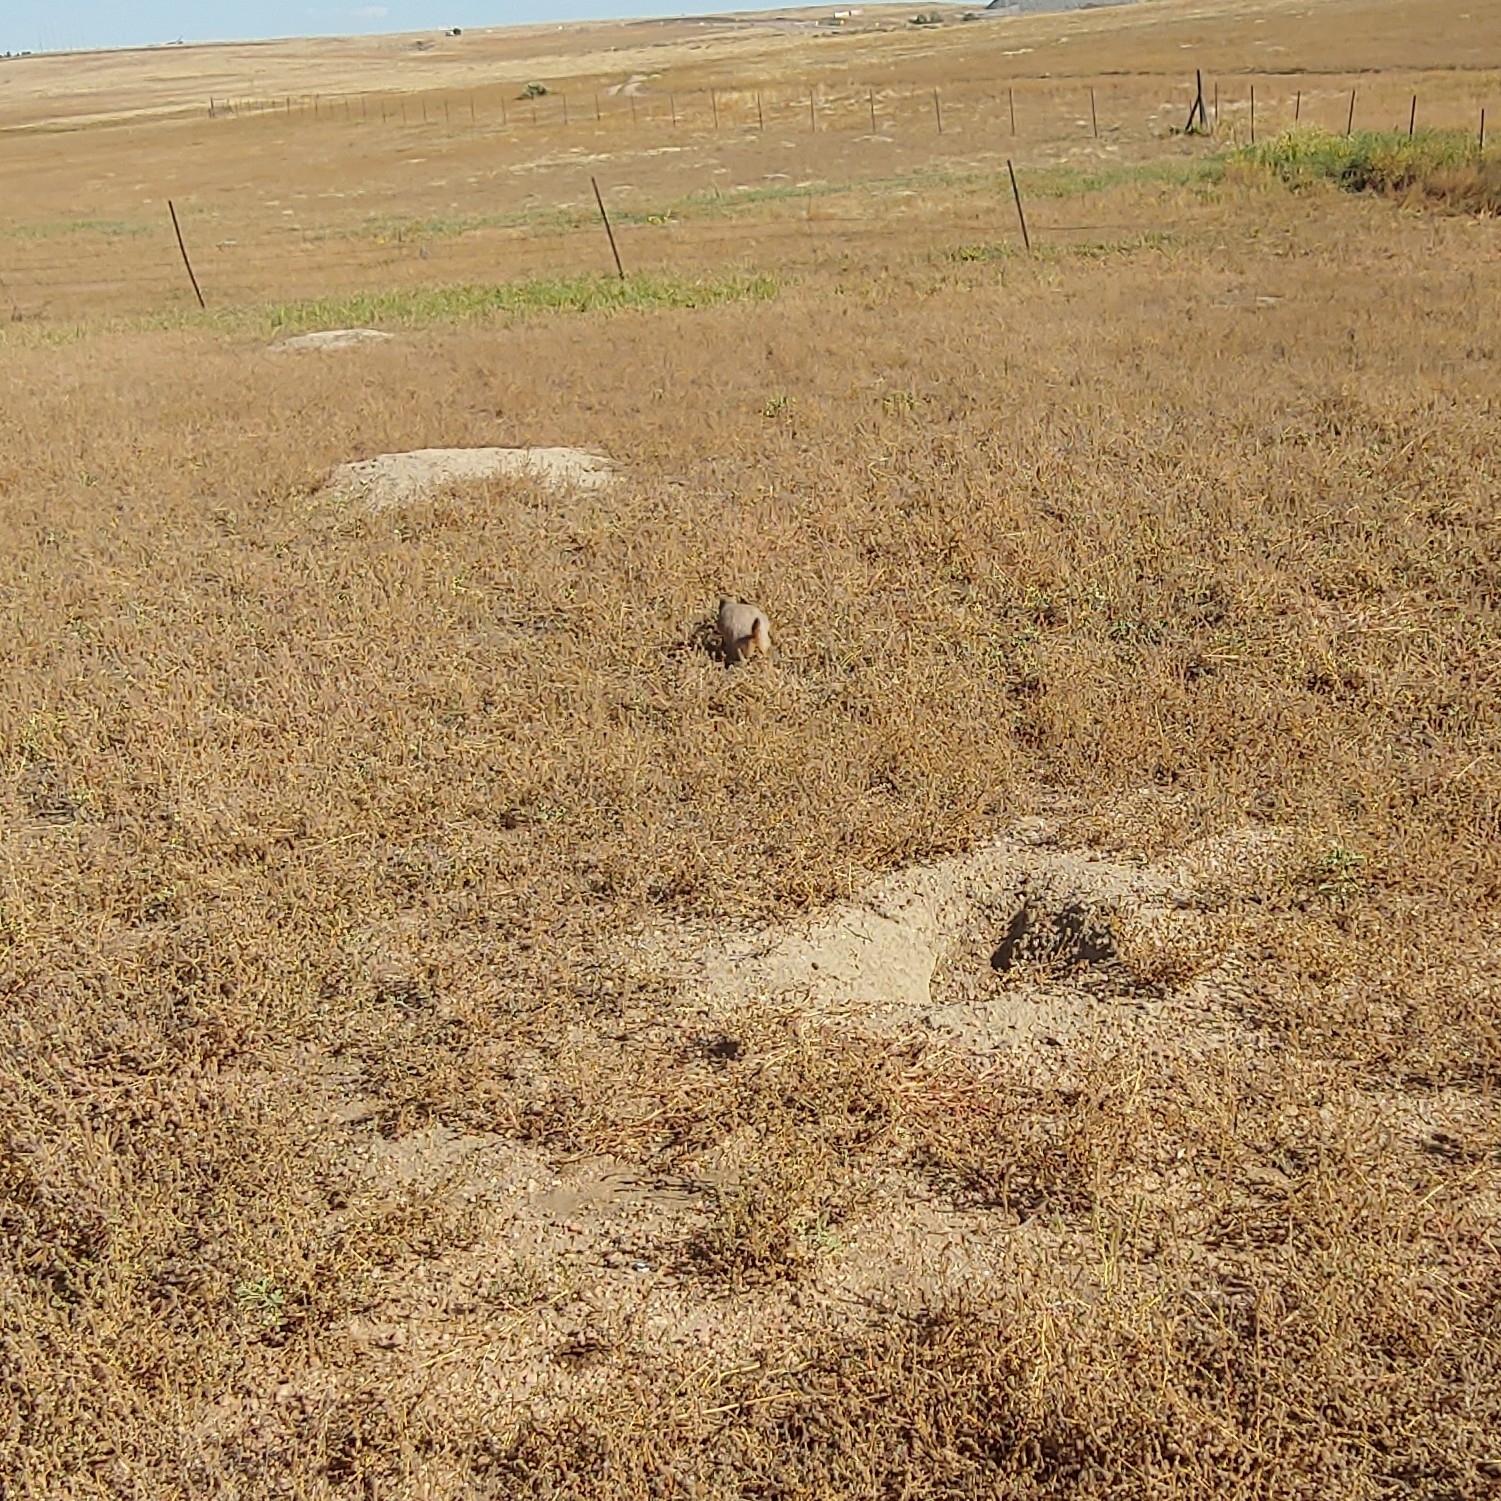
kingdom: Animalia
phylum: Chordata
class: Mammalia
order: Rodentia
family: Sciuridae
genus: Cynomys
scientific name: Cynomys ludovicianus
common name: Black-tailed prairie dog
